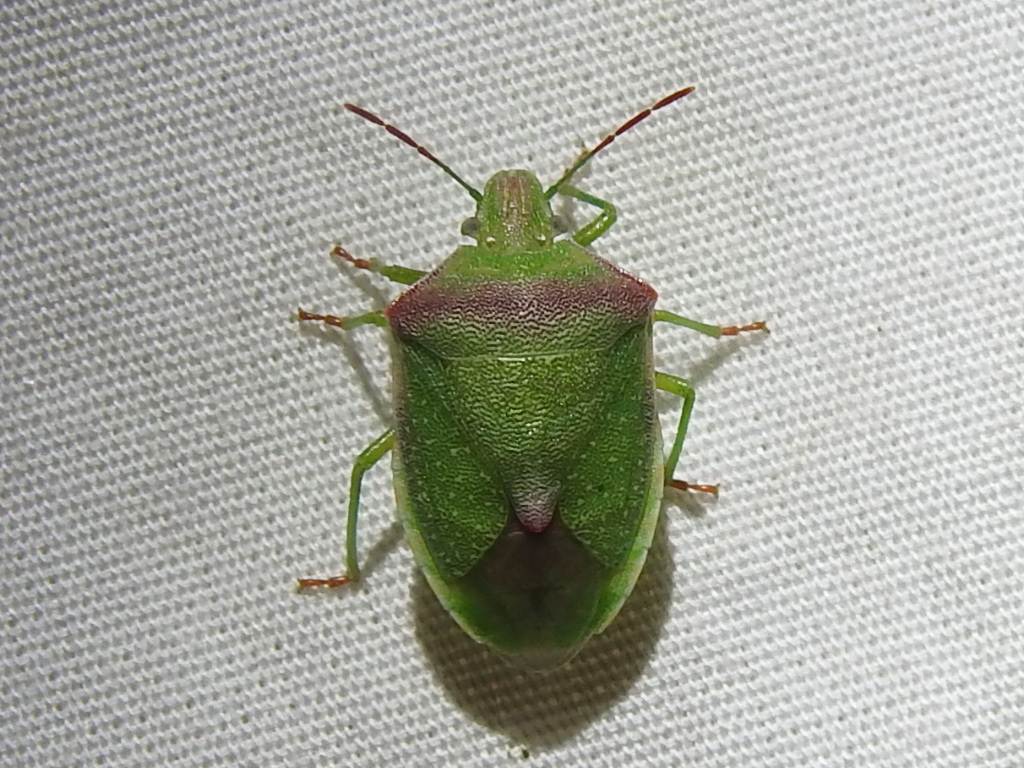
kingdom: Animalia
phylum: Arthropoda
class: Insecta
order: Hemiptera
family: Pentatomidae
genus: Thyanta
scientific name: Thyanta accerra
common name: Stink bug
